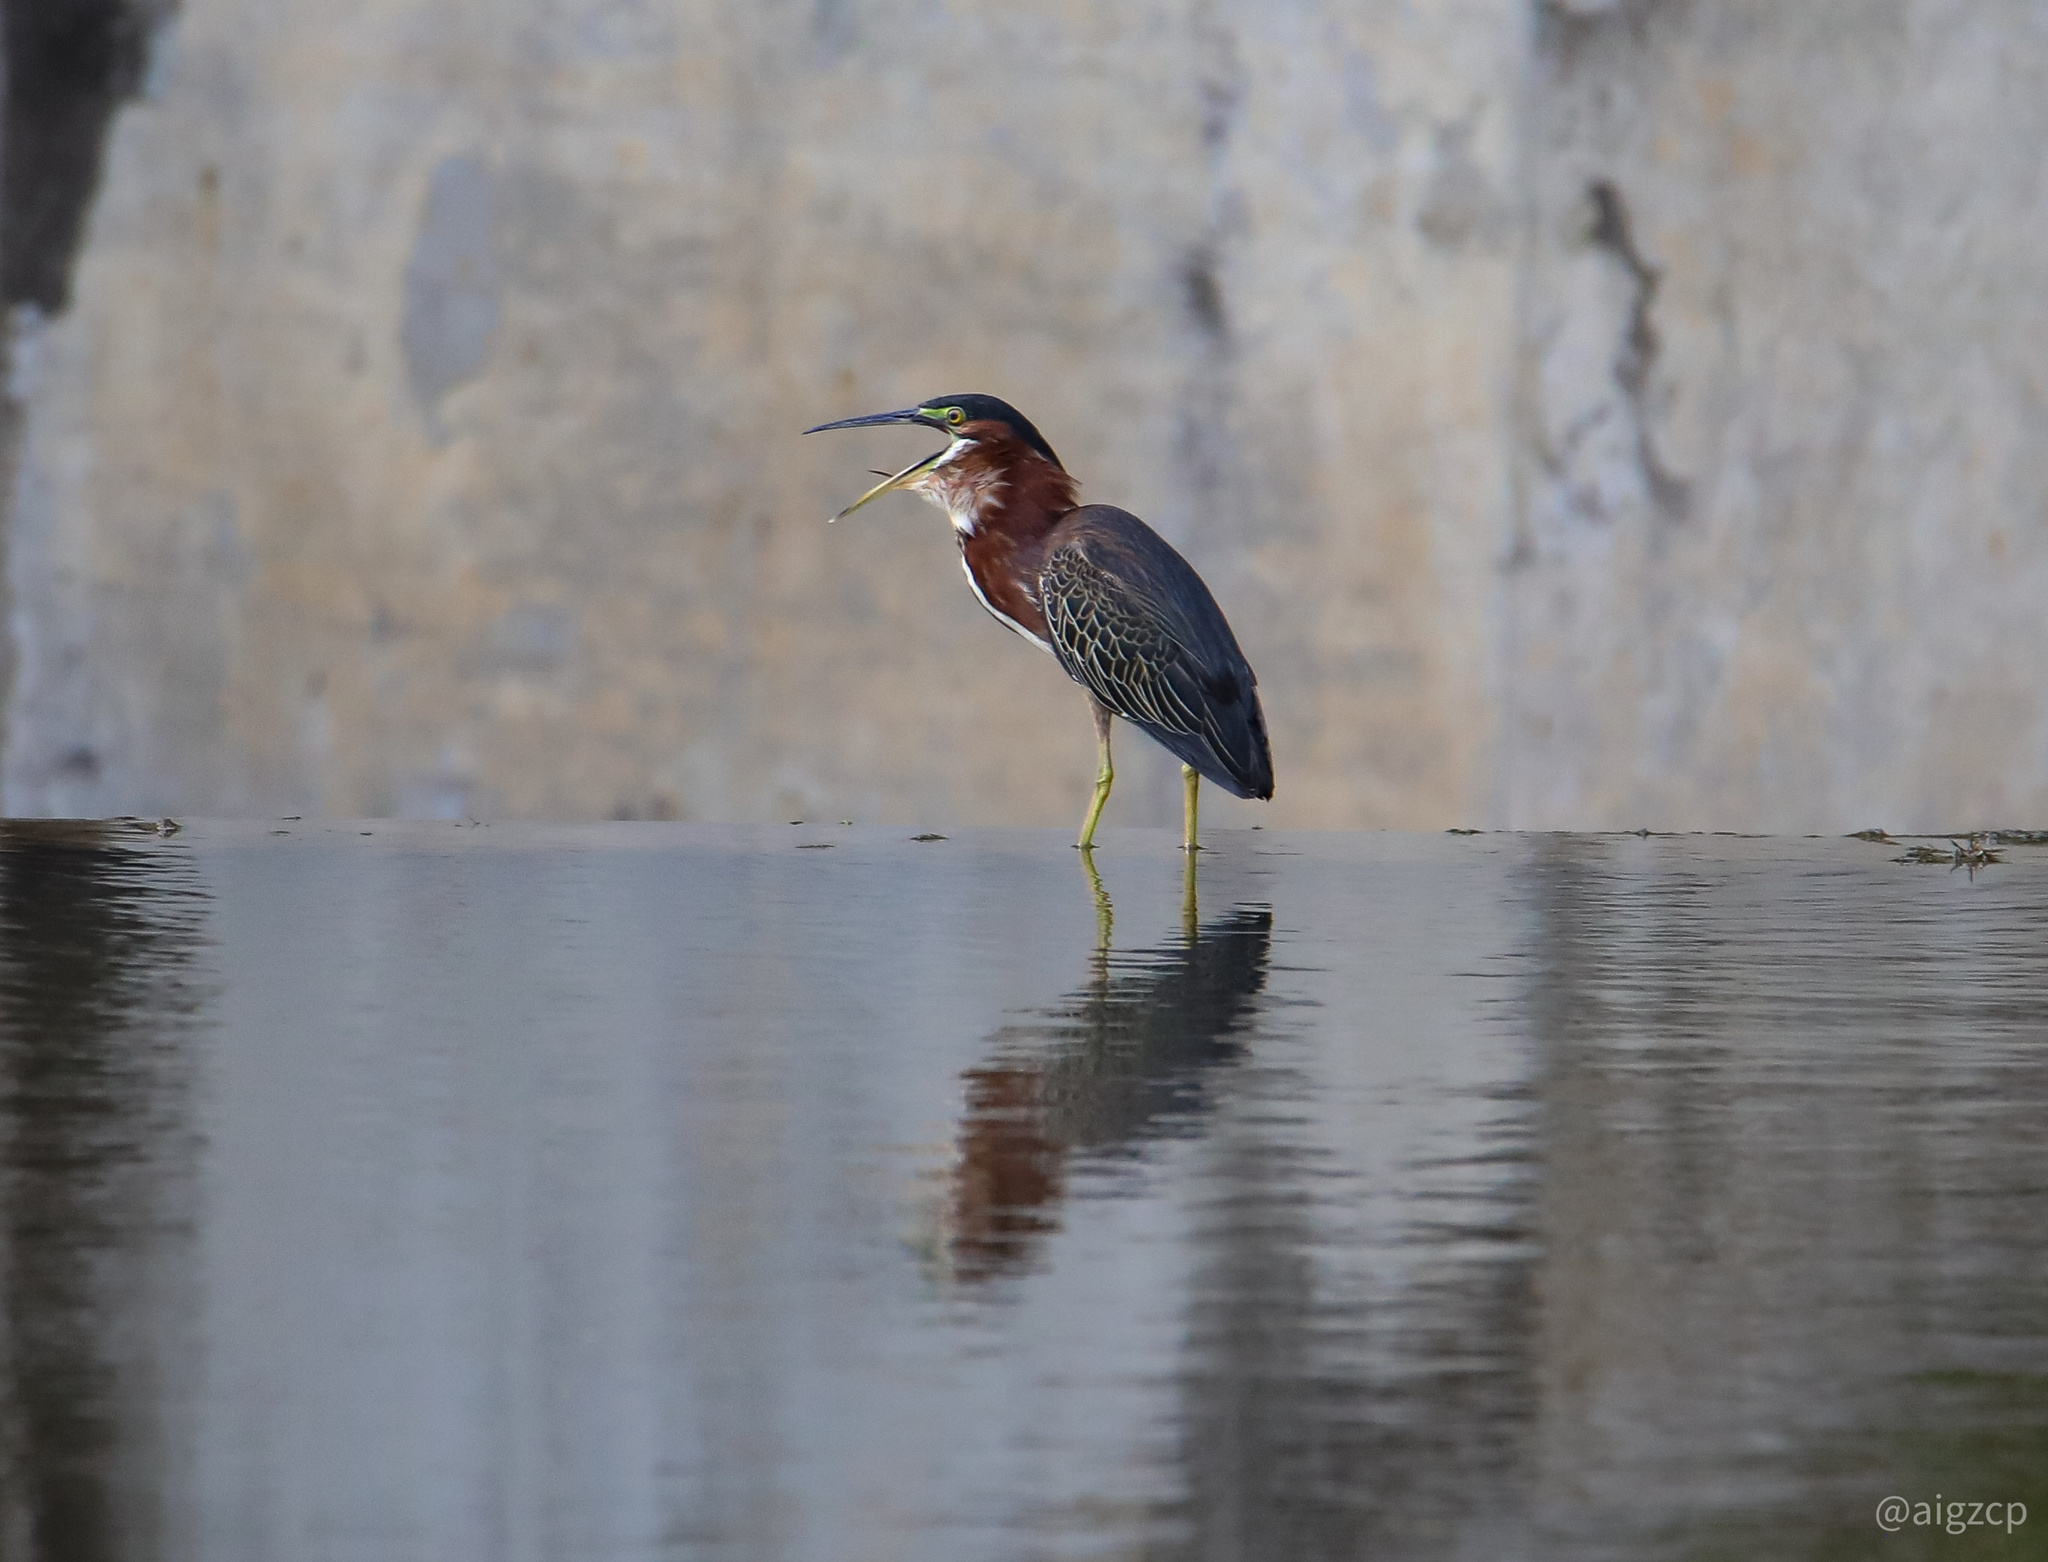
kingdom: Animalia
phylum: Chordata
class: Aves
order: Pelecaniformes
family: Ardeidae
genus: Butorides
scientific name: Butorides virescens
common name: Green heron
